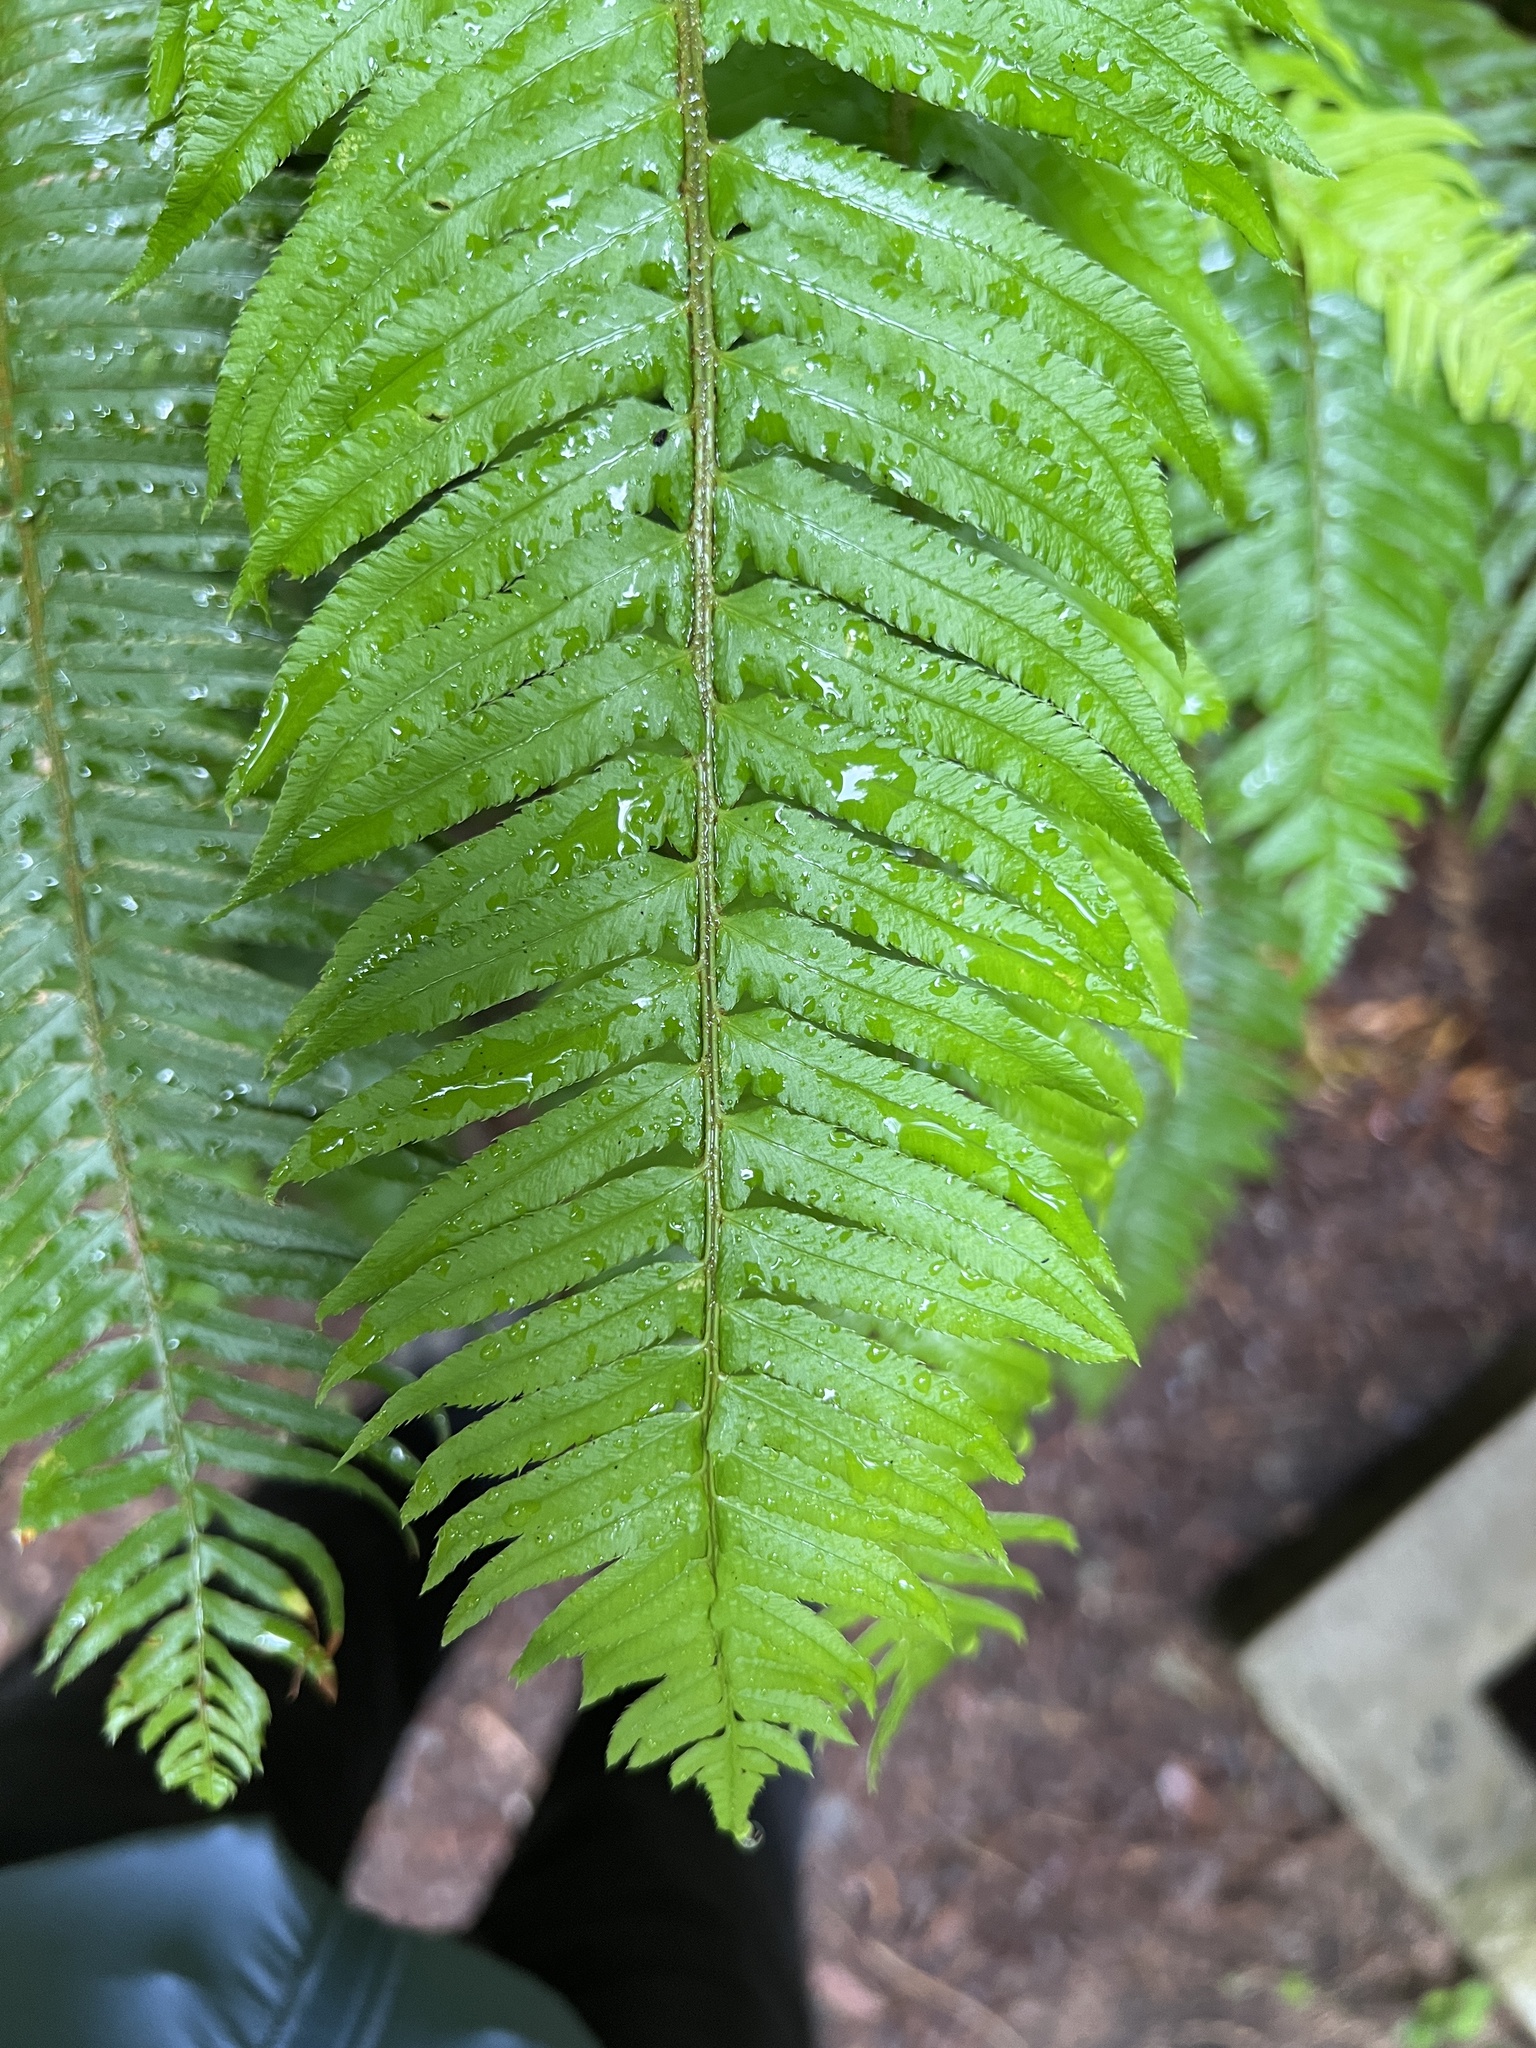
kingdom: Plantae
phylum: Tracheophyta
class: Polypodiopsida
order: Polypodiales
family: Dryopteridaceae
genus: Polystichum
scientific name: Polystichum munitum
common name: Western sword-fern
